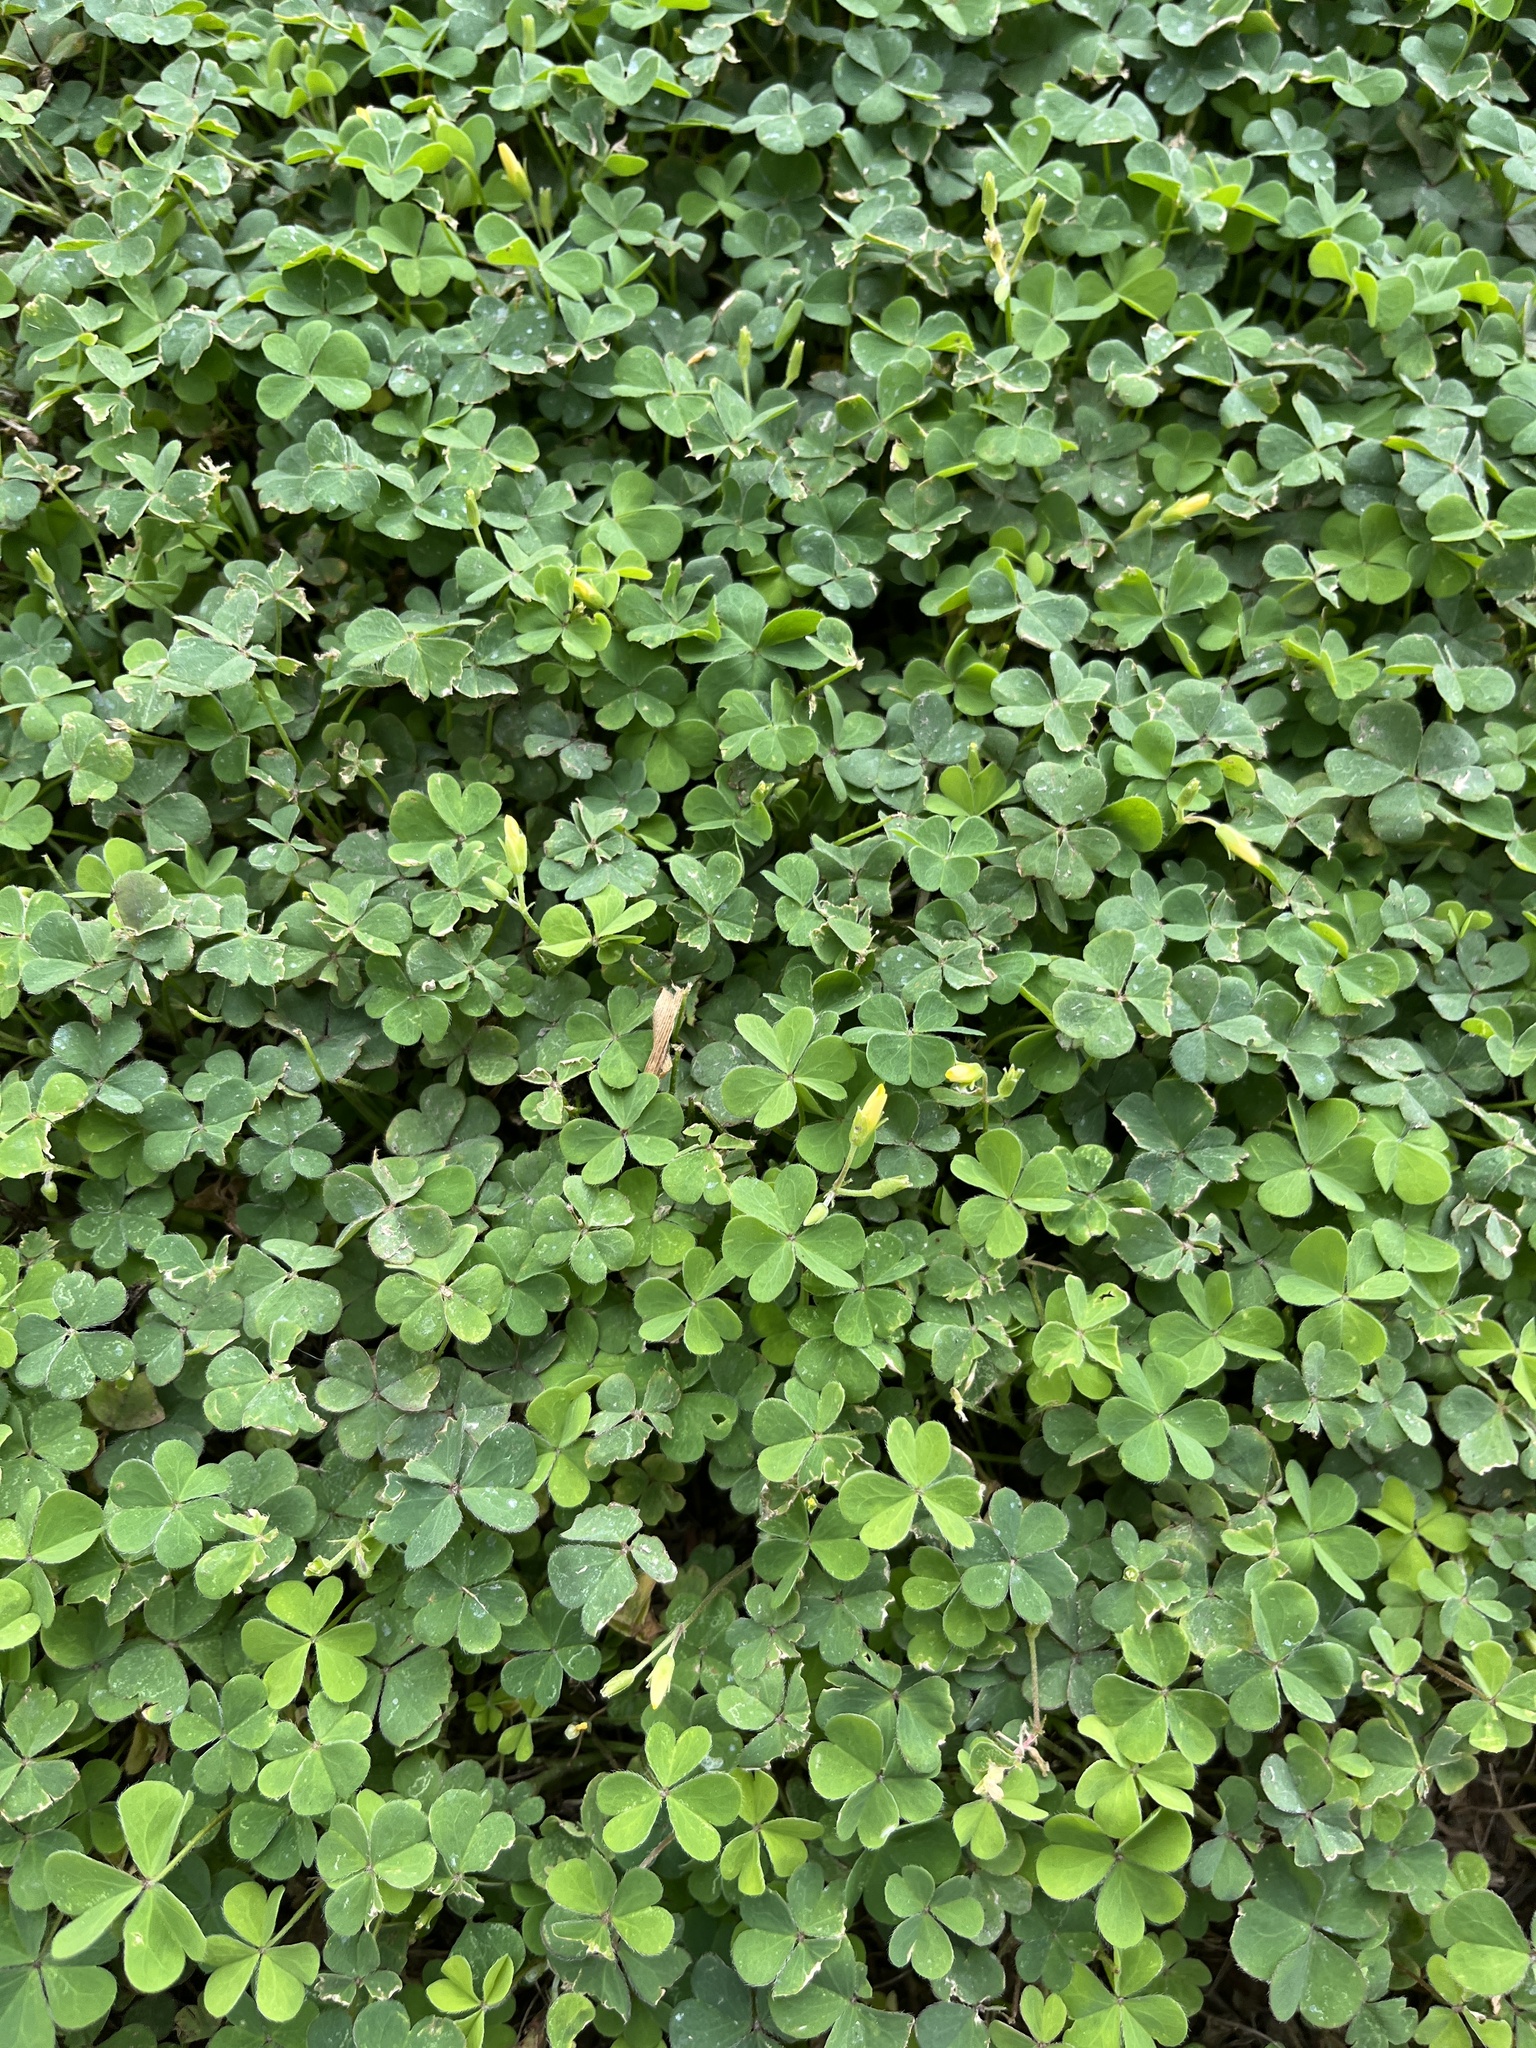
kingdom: Plantae
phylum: Tracheophyta
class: Magnoliopsida
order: Oxalidales
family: Oxalidaceae
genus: Oxalis
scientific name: Oxalis corniculata
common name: Procumbent yellow-sorrel
